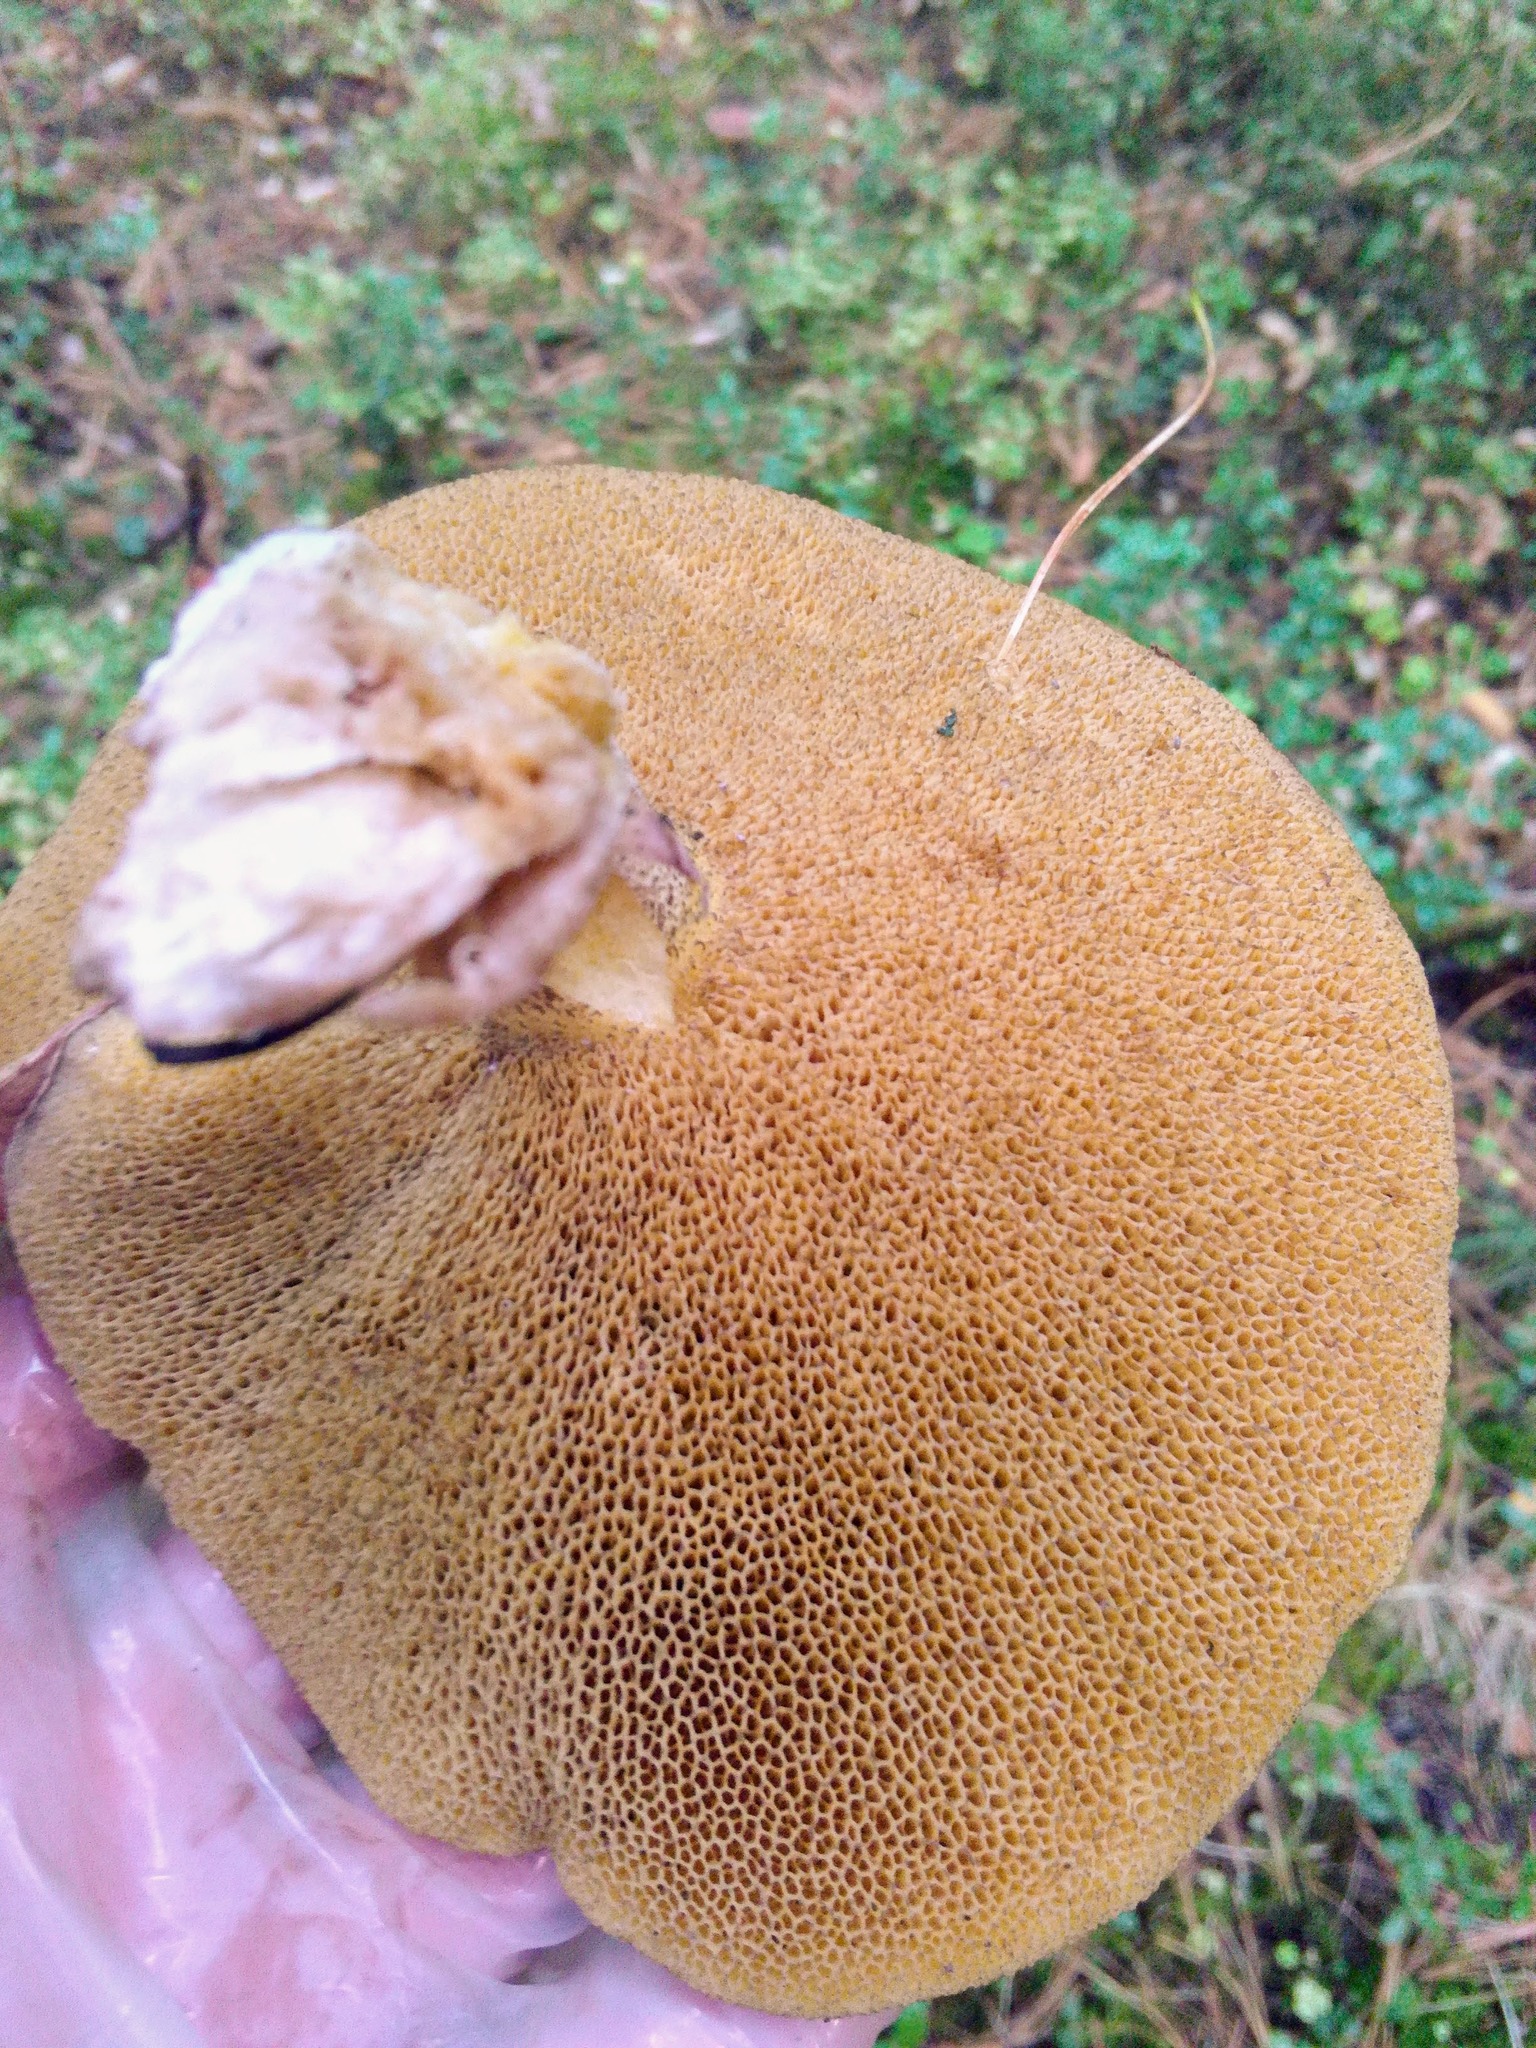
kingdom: Fungi
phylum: Basidiomycota
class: Agaricomycetes
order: Boletales
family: Suillaceae
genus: Suillus
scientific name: Suillus placidus
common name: Slippery white bolete
